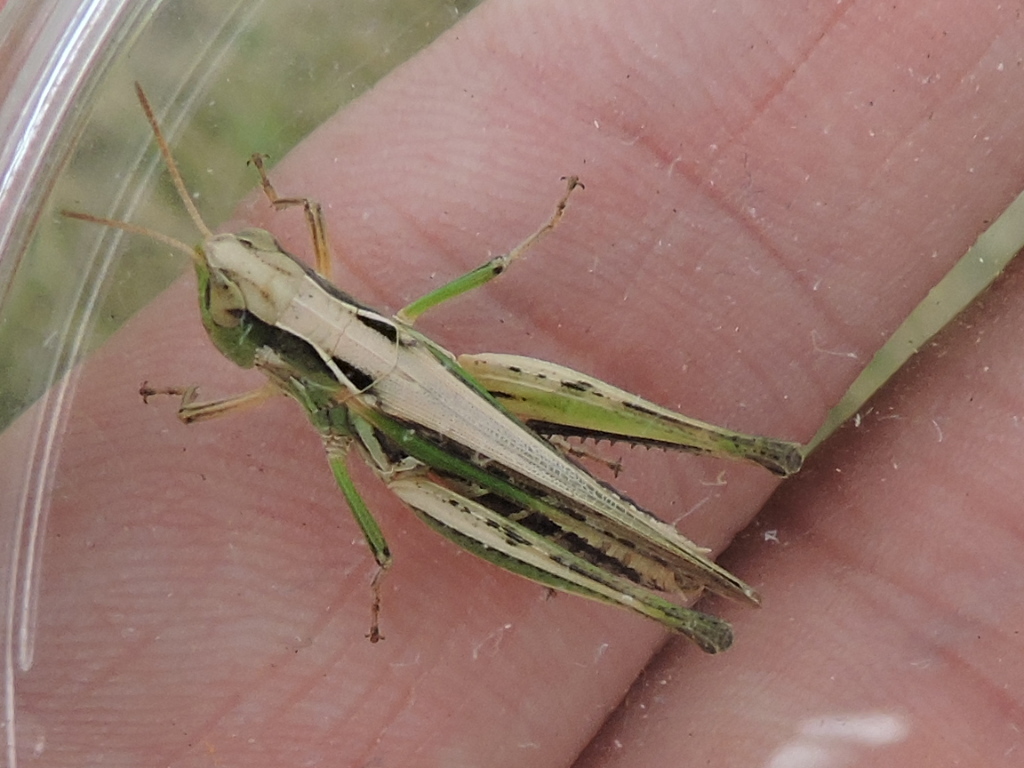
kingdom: Animalia
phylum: Arthropoda
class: Insecta
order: Orthoptera
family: Acrididae
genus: Orphulella
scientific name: Orphulella speciosa
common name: Pasture grasshopper
